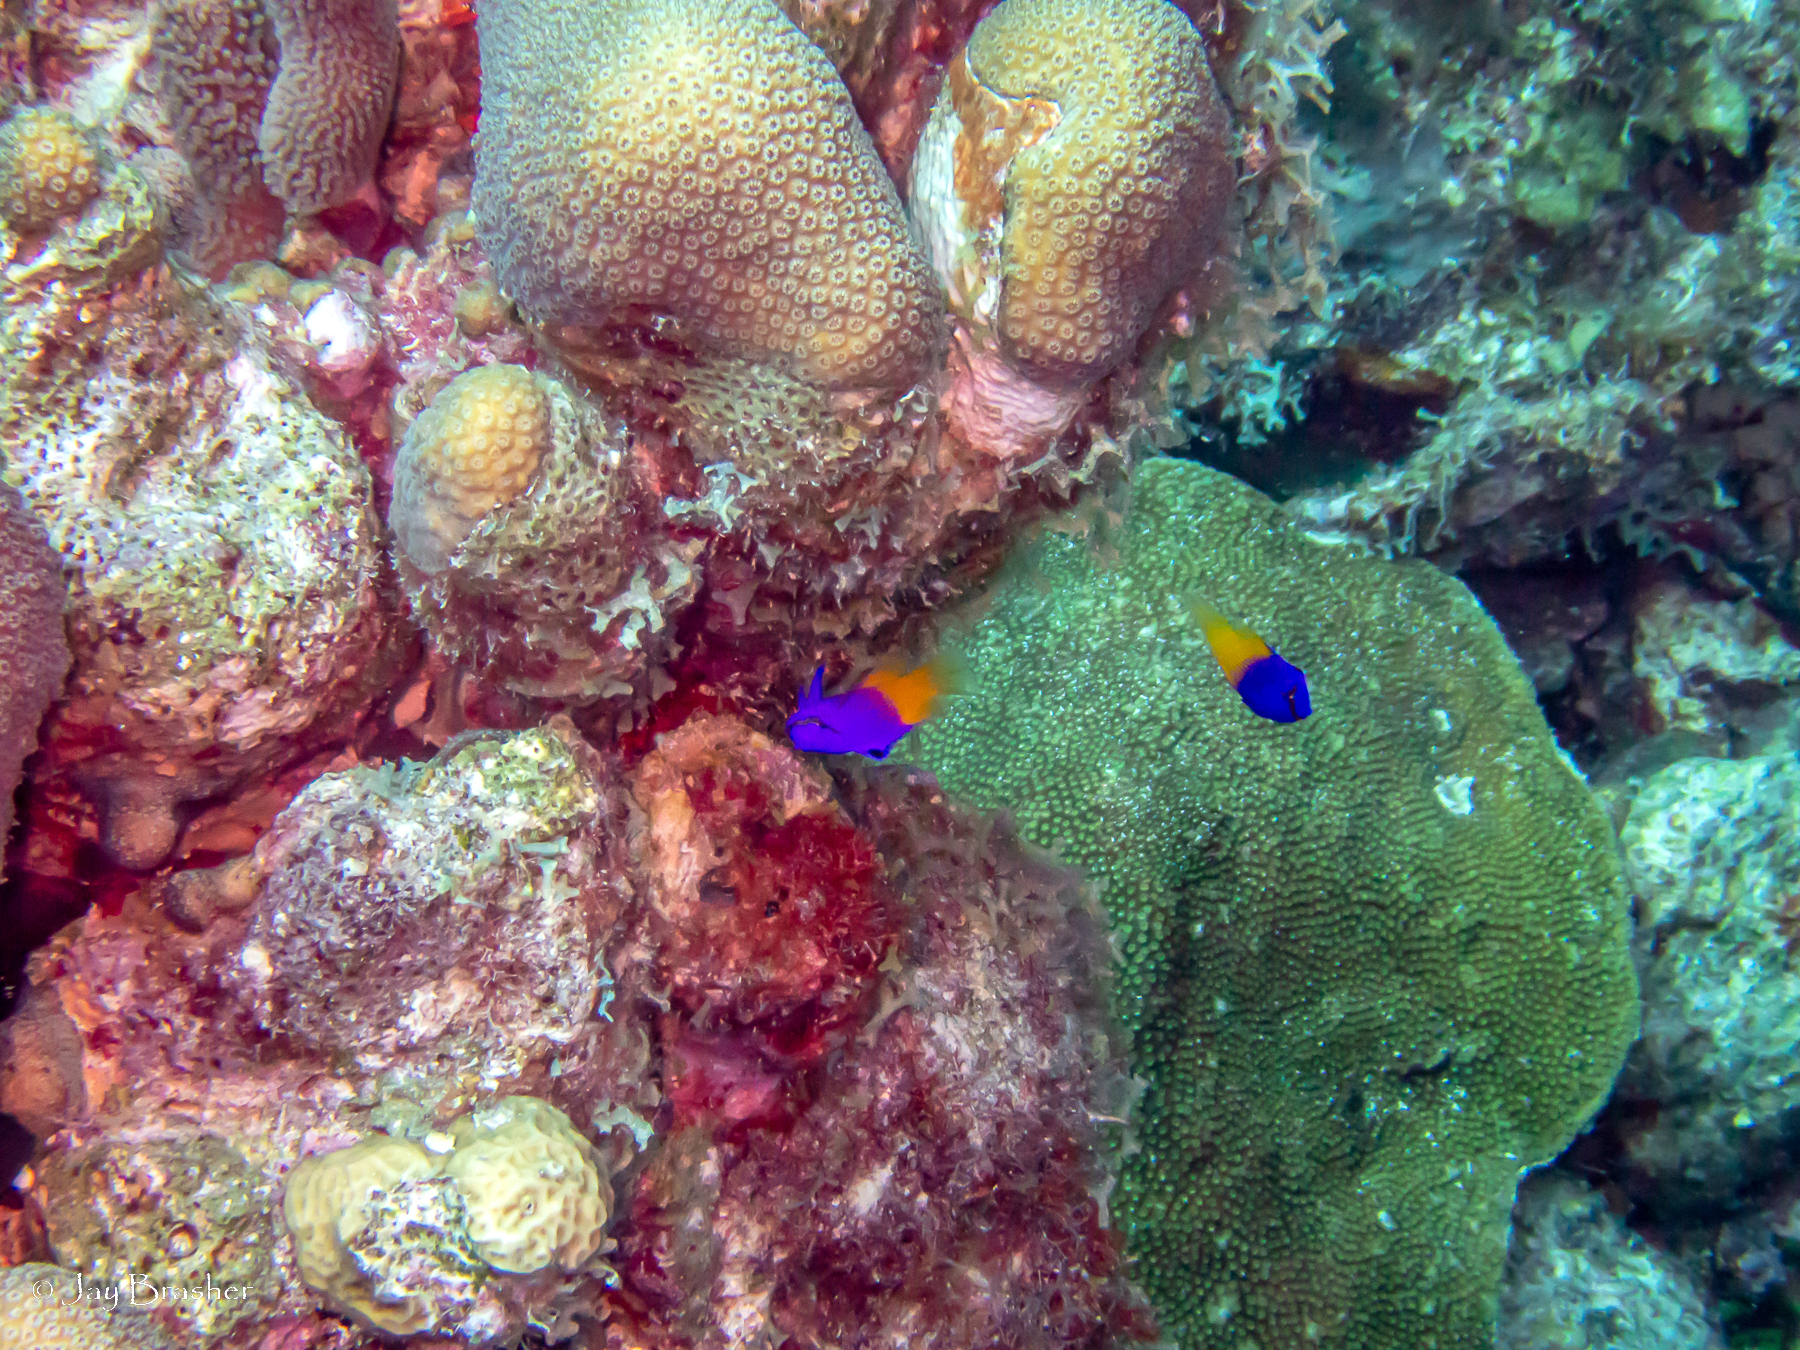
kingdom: Animalia
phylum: Cnidaria
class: Anthozoa
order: Scleractinia
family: Merulinidae
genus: Orbicella
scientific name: Orbicella annularis
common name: Boulder star coral
